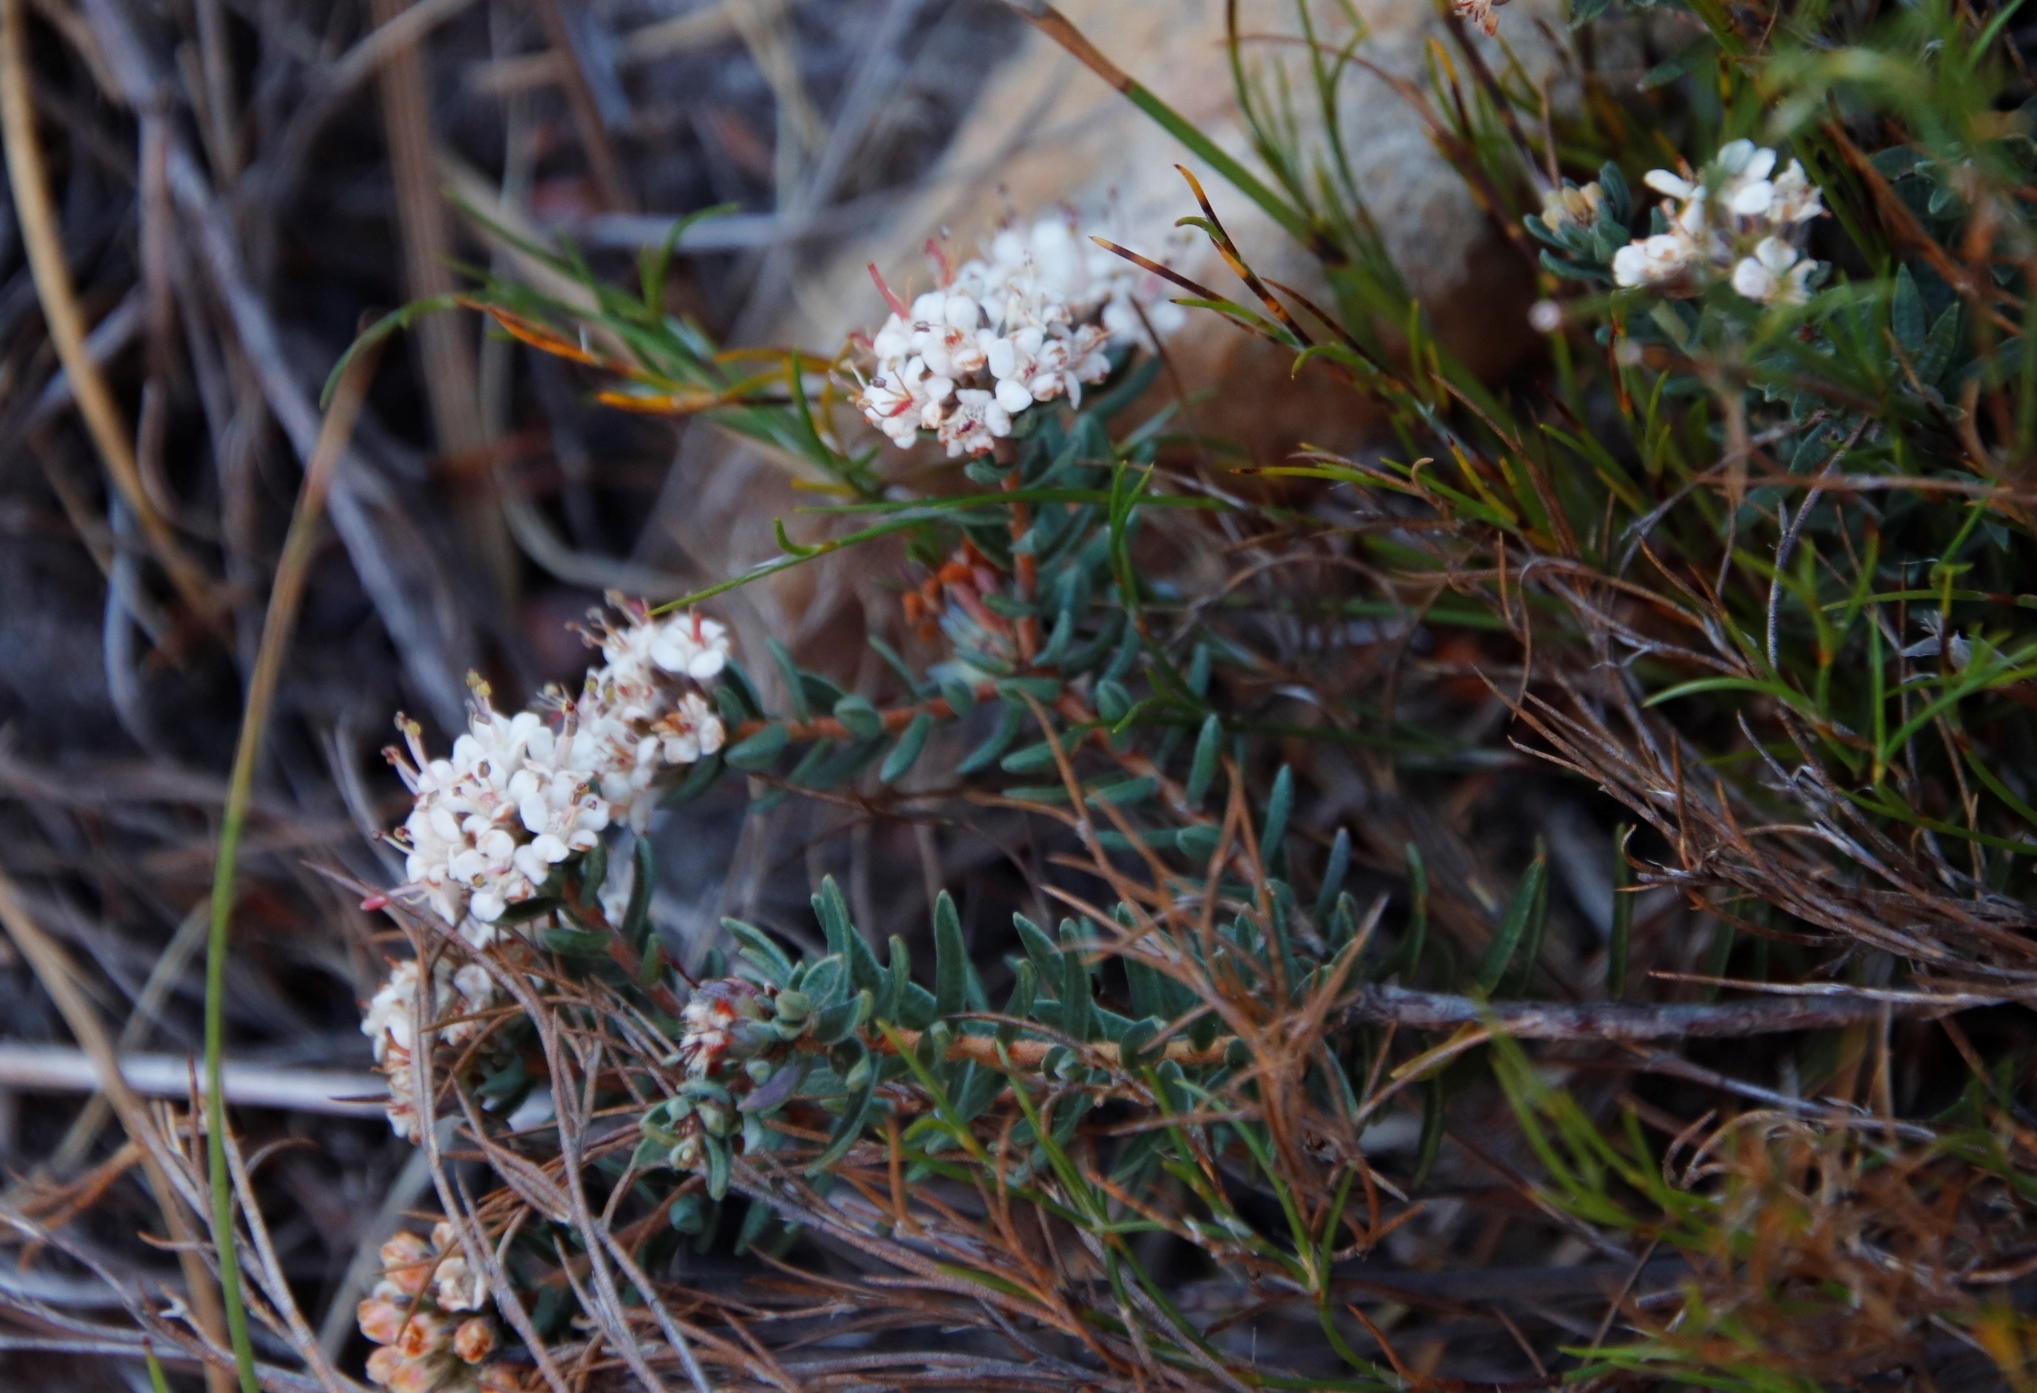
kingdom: Plantae
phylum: Tracheophyta
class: Magnoliopsida
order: Sapindales
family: Rutaceae
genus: Macrostylis
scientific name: Macrostylis villosa
